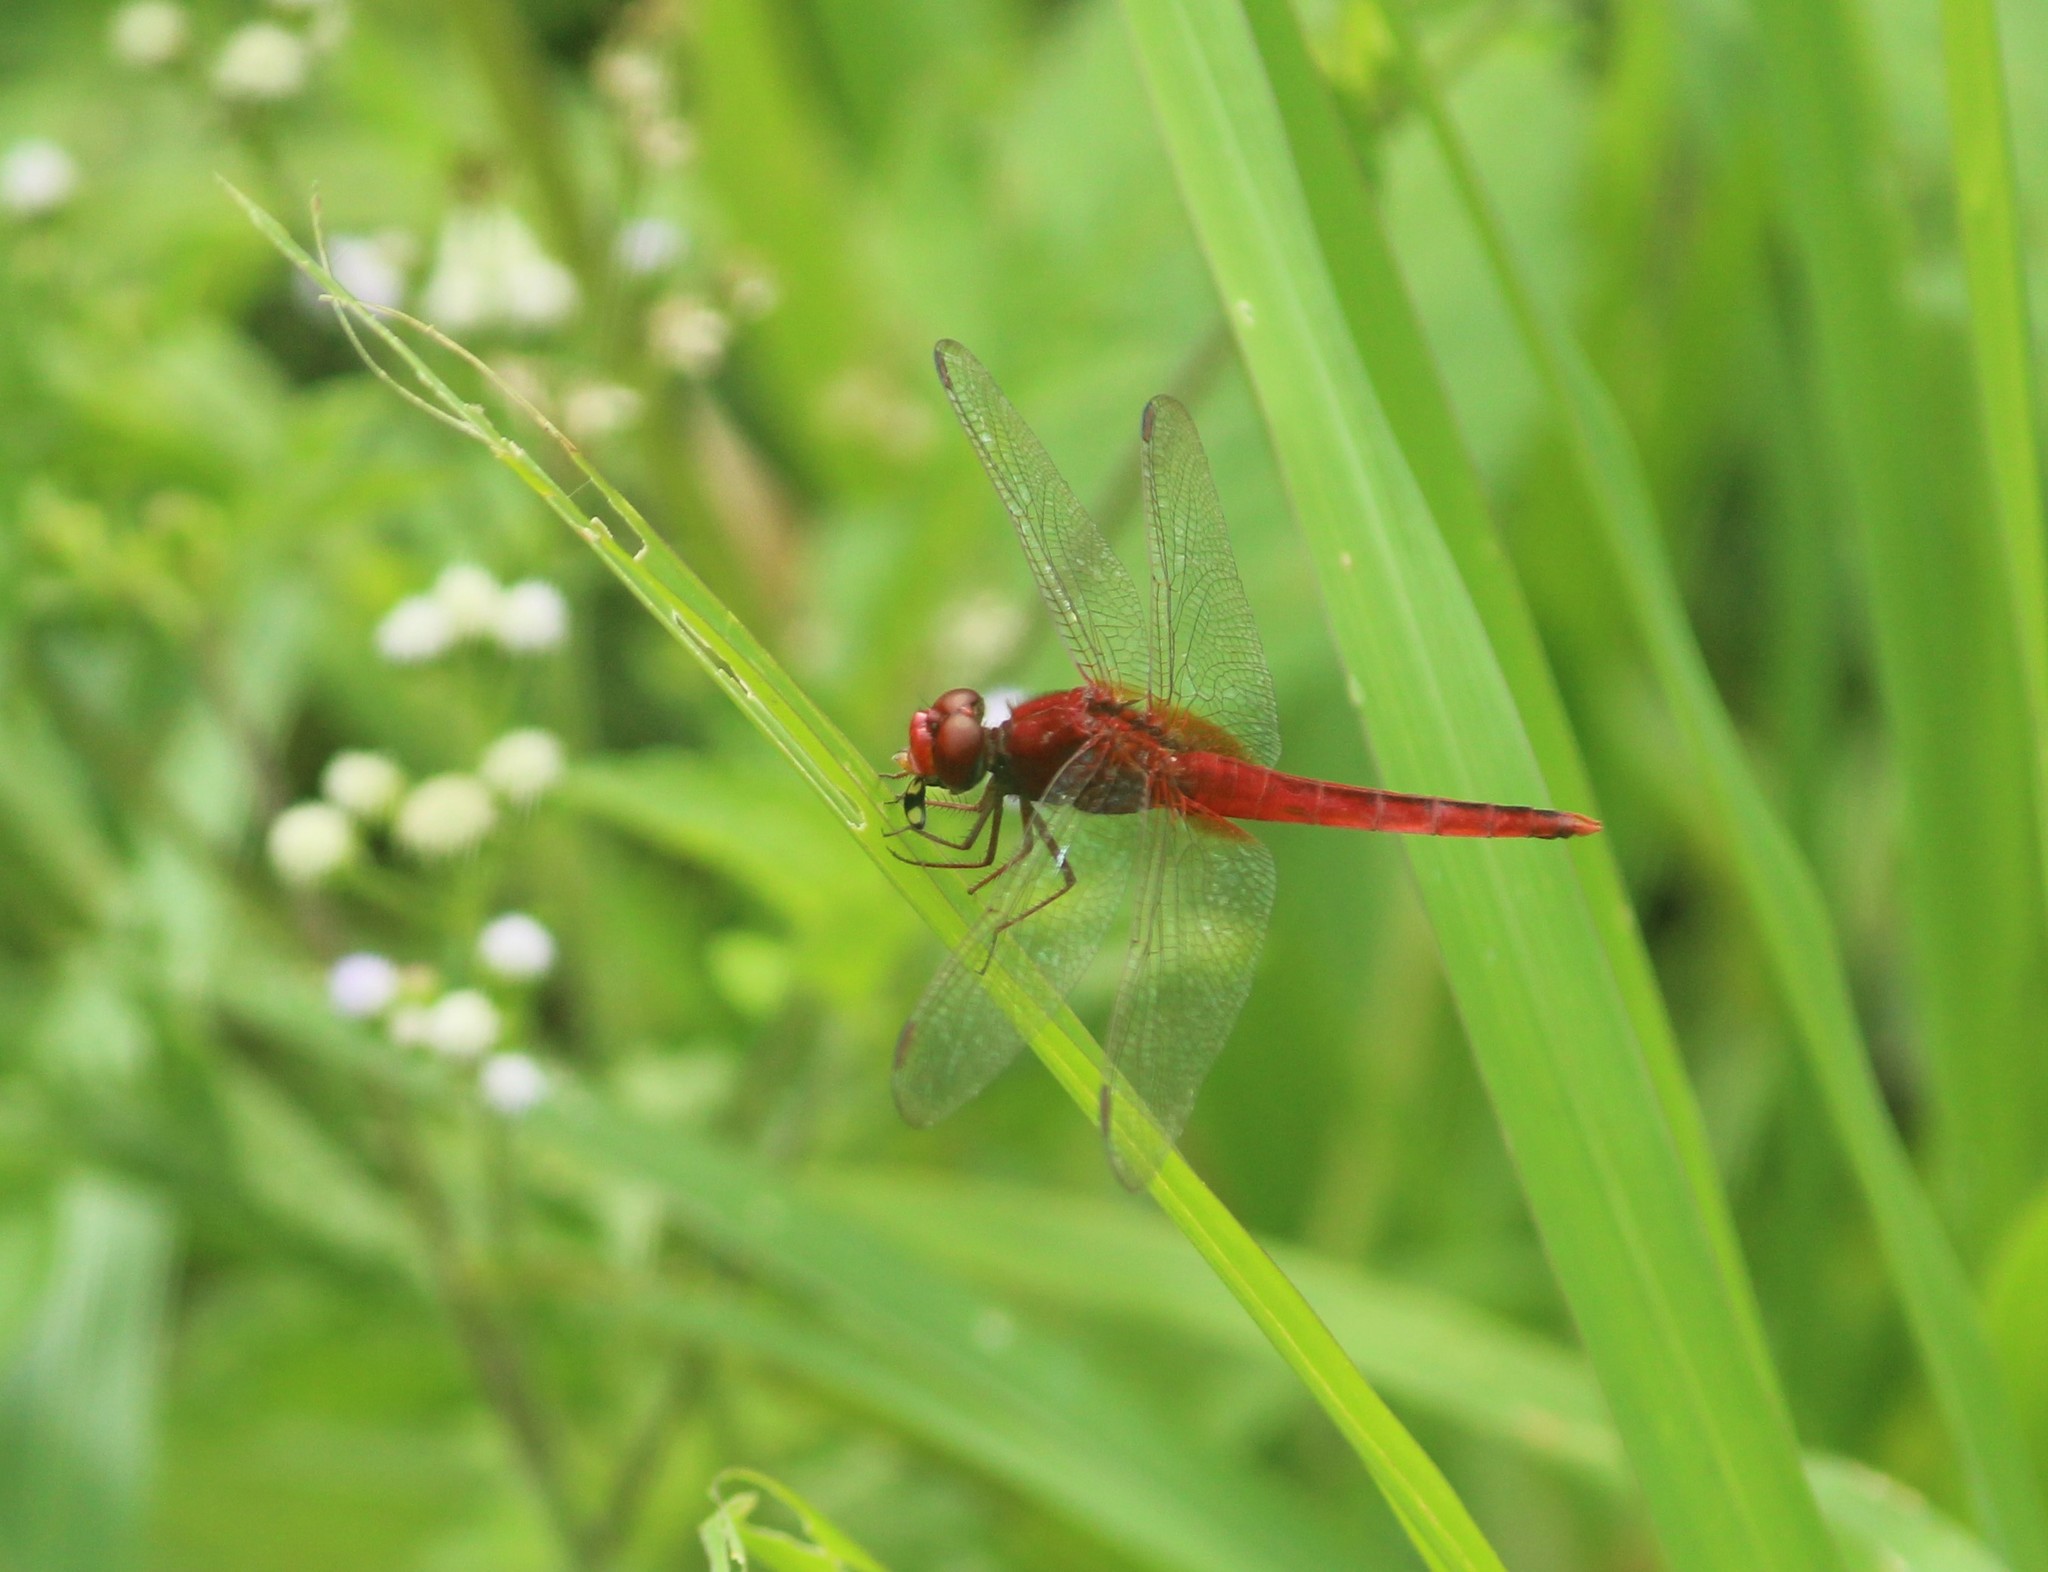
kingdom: Animalia
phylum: Arthropoda
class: Insecta
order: Odonata
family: Libellulidae
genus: Crocothemis
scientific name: Crocothemis servilia
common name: Scarlet skimmer
